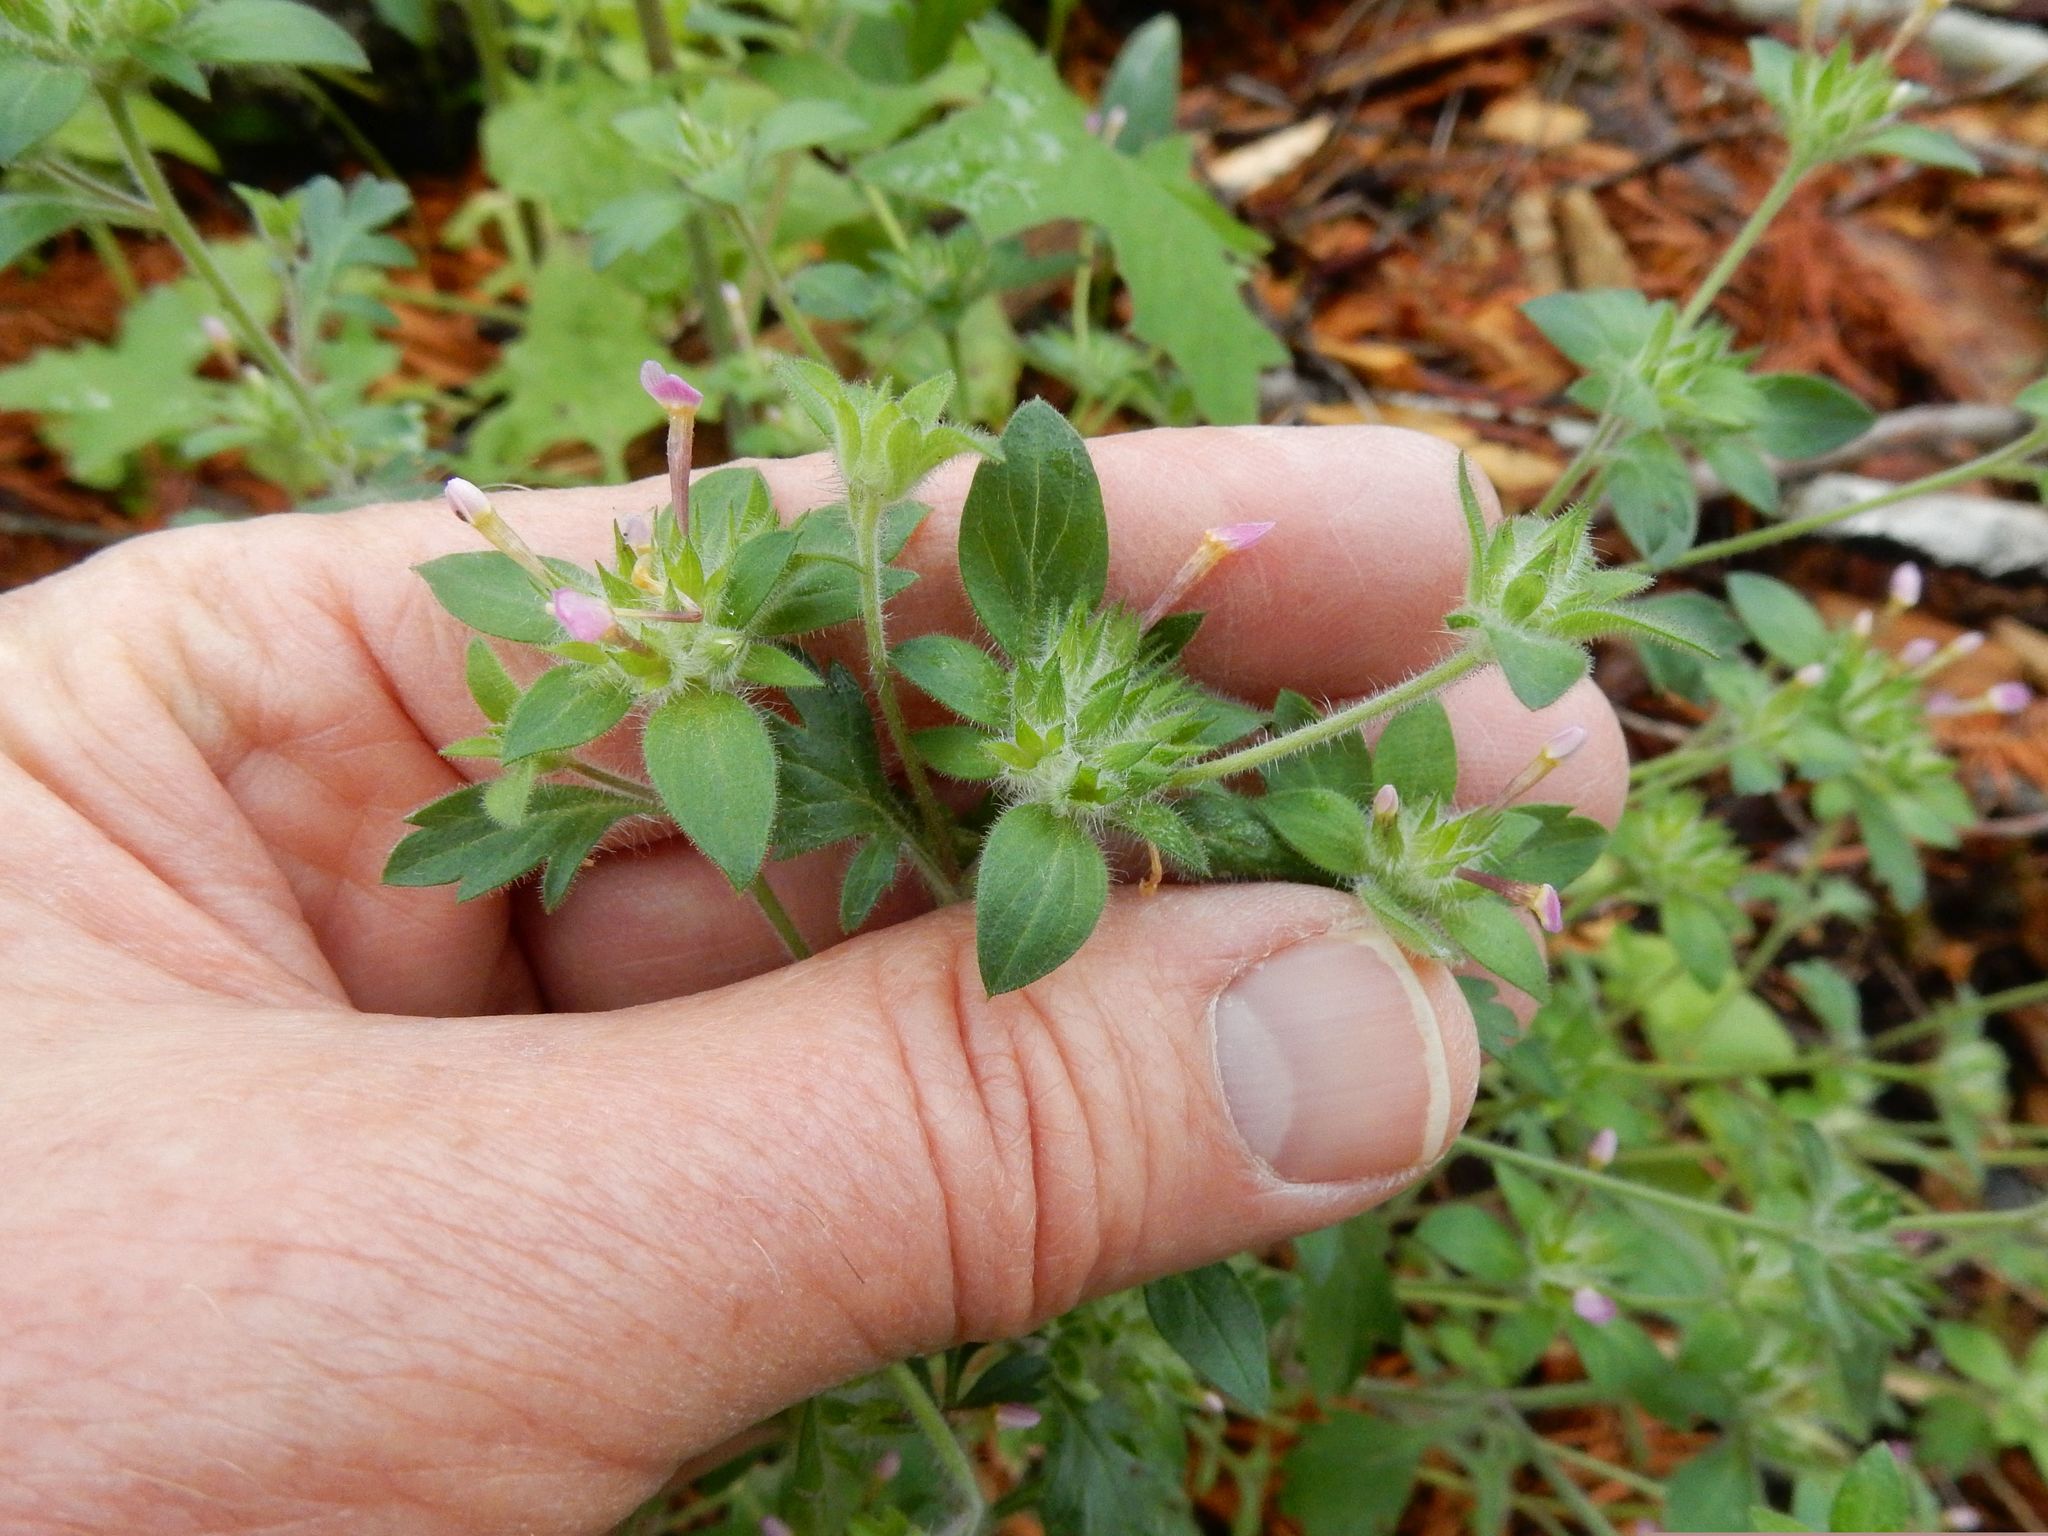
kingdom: Plantae
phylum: Tracheophyta
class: Magnoliopsida
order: Ericales
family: Polemoniaceae
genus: Collomia
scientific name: Collomia heterophylla
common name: Variable-leaved collomia
